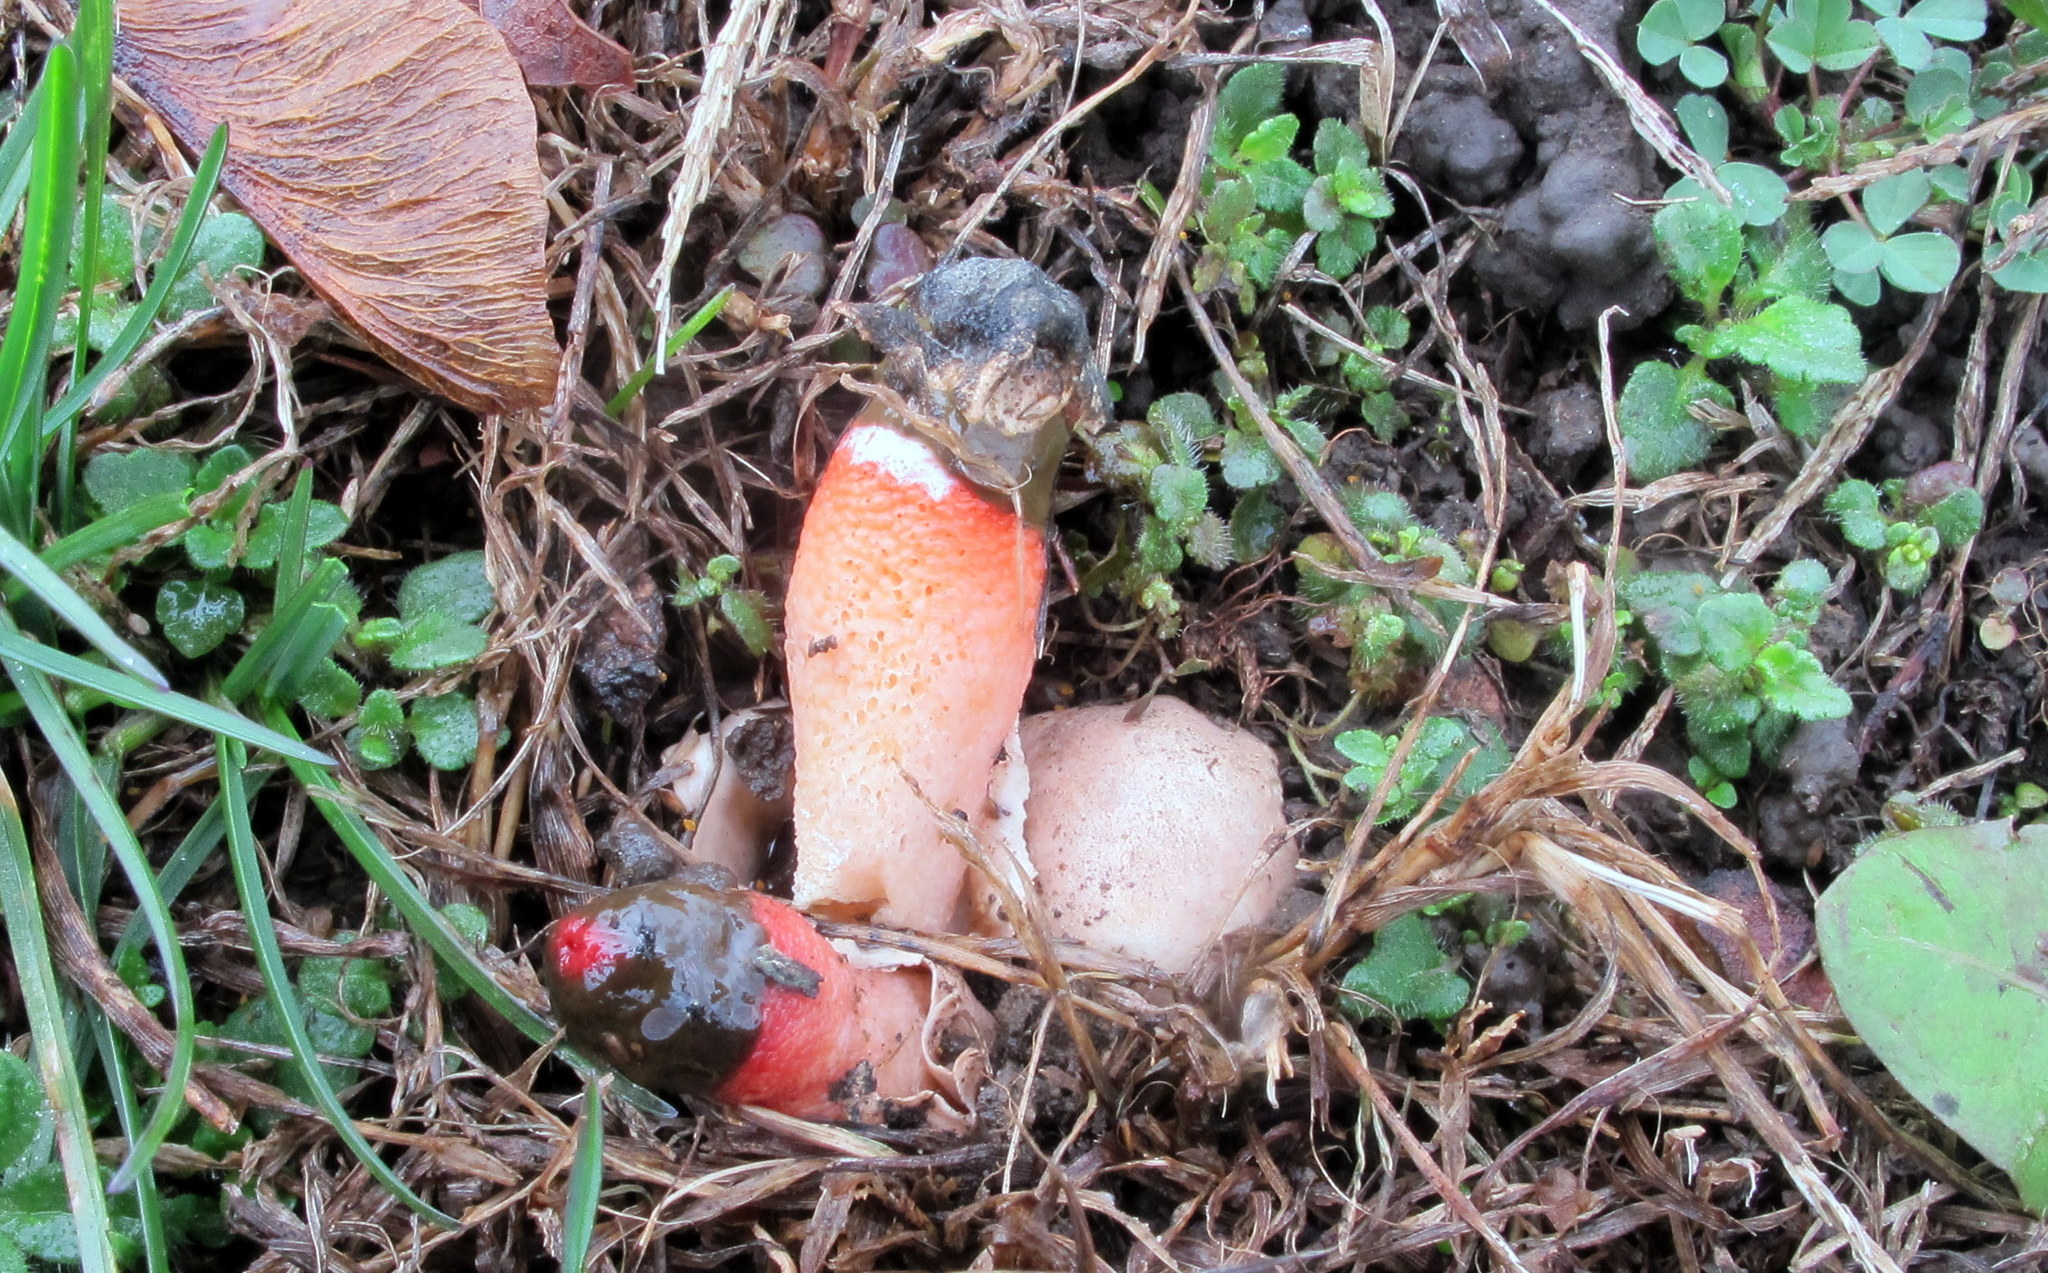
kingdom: Fungi
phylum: Basidiomycota
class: Agaricomycetes
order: Phallales
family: Phallaceae
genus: Mutinus
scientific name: Mutinus elegans
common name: Devil's dipstick
